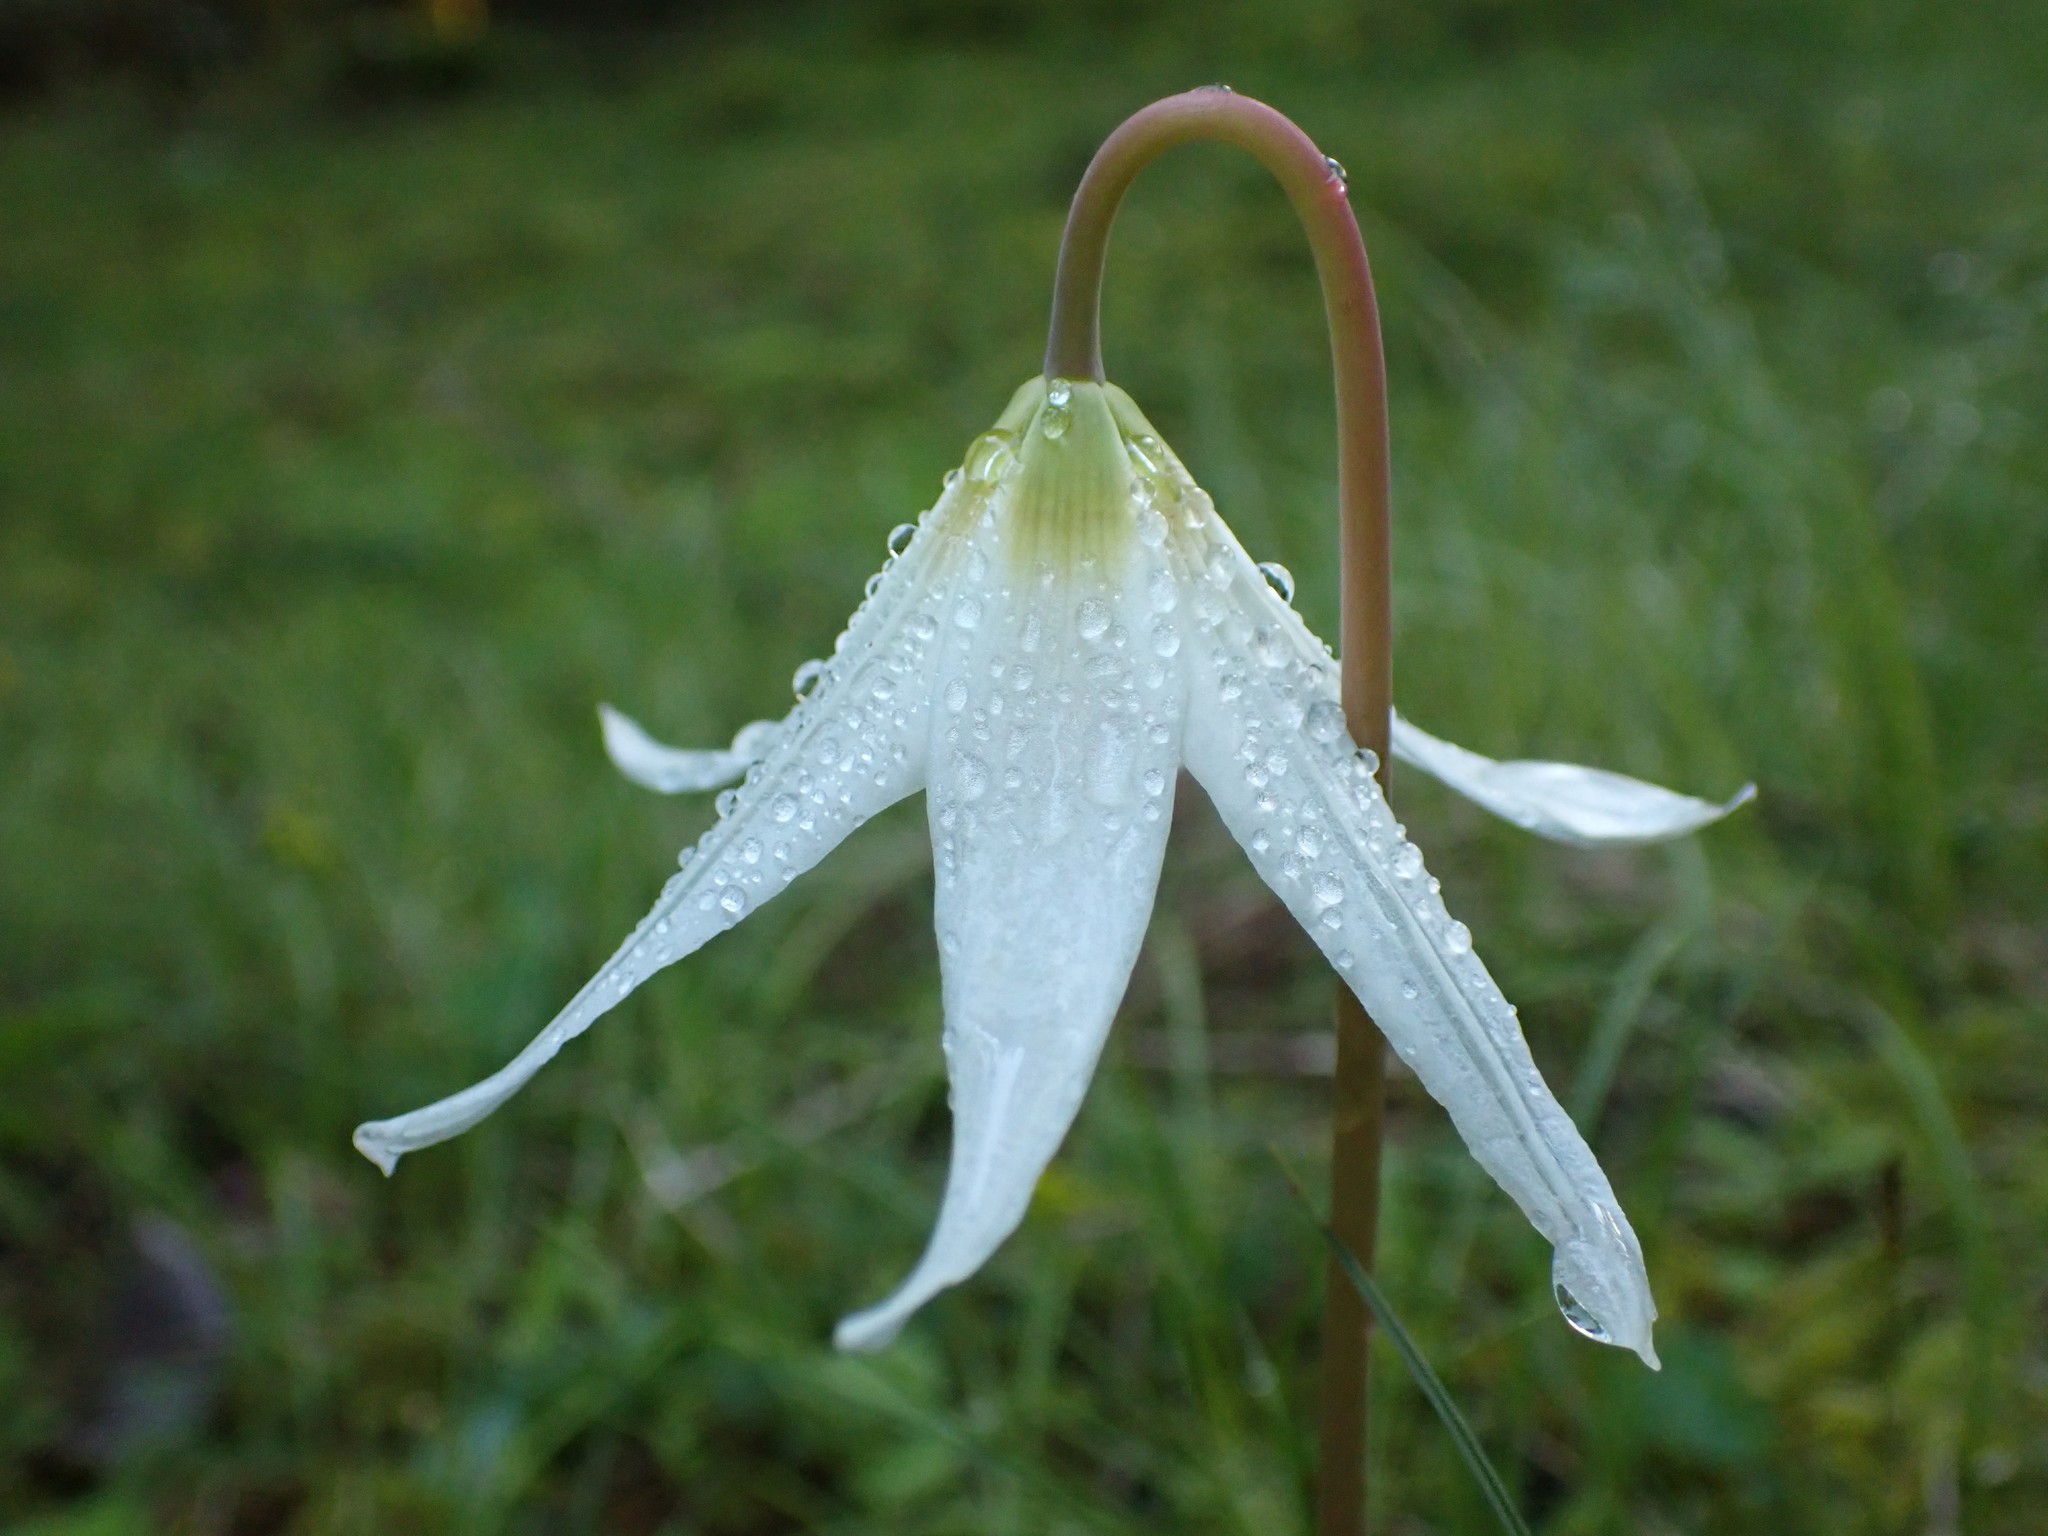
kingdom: Plantae
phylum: Tracheophyta
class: Liliopsida
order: Liliales
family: Liliaceae
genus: Erythronium
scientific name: Erythronium oregonum
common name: Giant adder's-tongue
